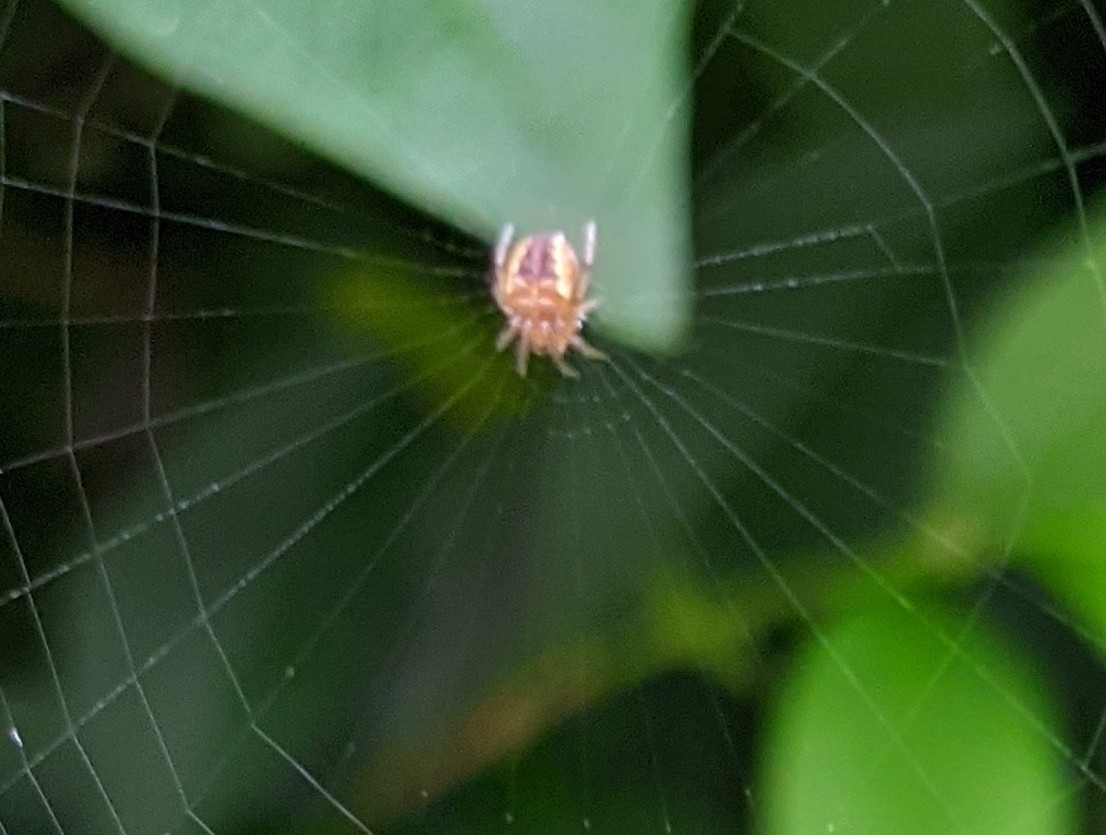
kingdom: Animalia
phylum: Arthropoda
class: Arachnida
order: Araneae
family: Araneidae
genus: Araneus
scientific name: Araneus diadematus
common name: Cross orbweaver
